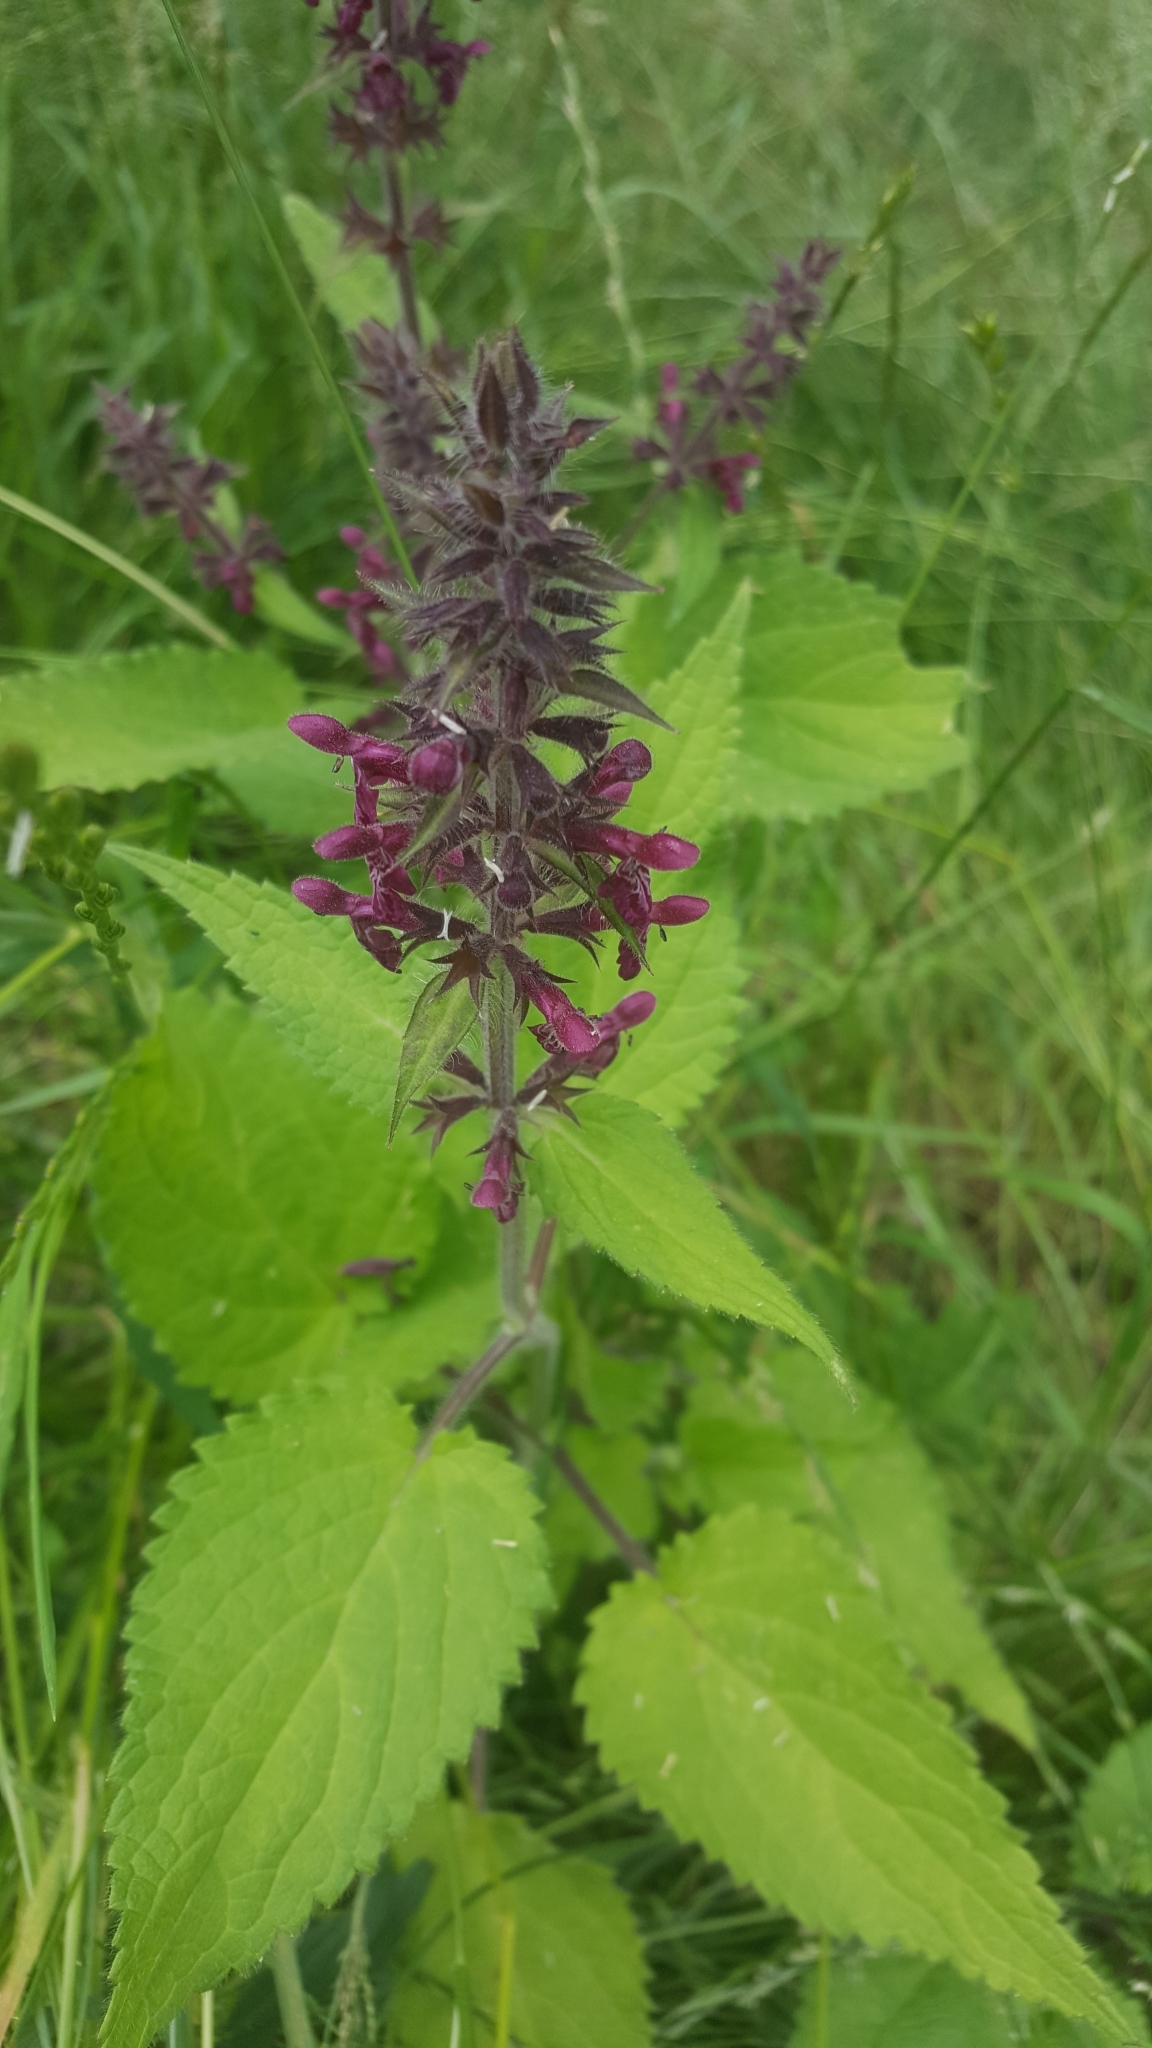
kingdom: Plantae
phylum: Tracheophyta
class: Magnoliopsida
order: Lamiales
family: Lamiaceae
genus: Stachys
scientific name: Stachys sylvatica
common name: Hedge woundwort
